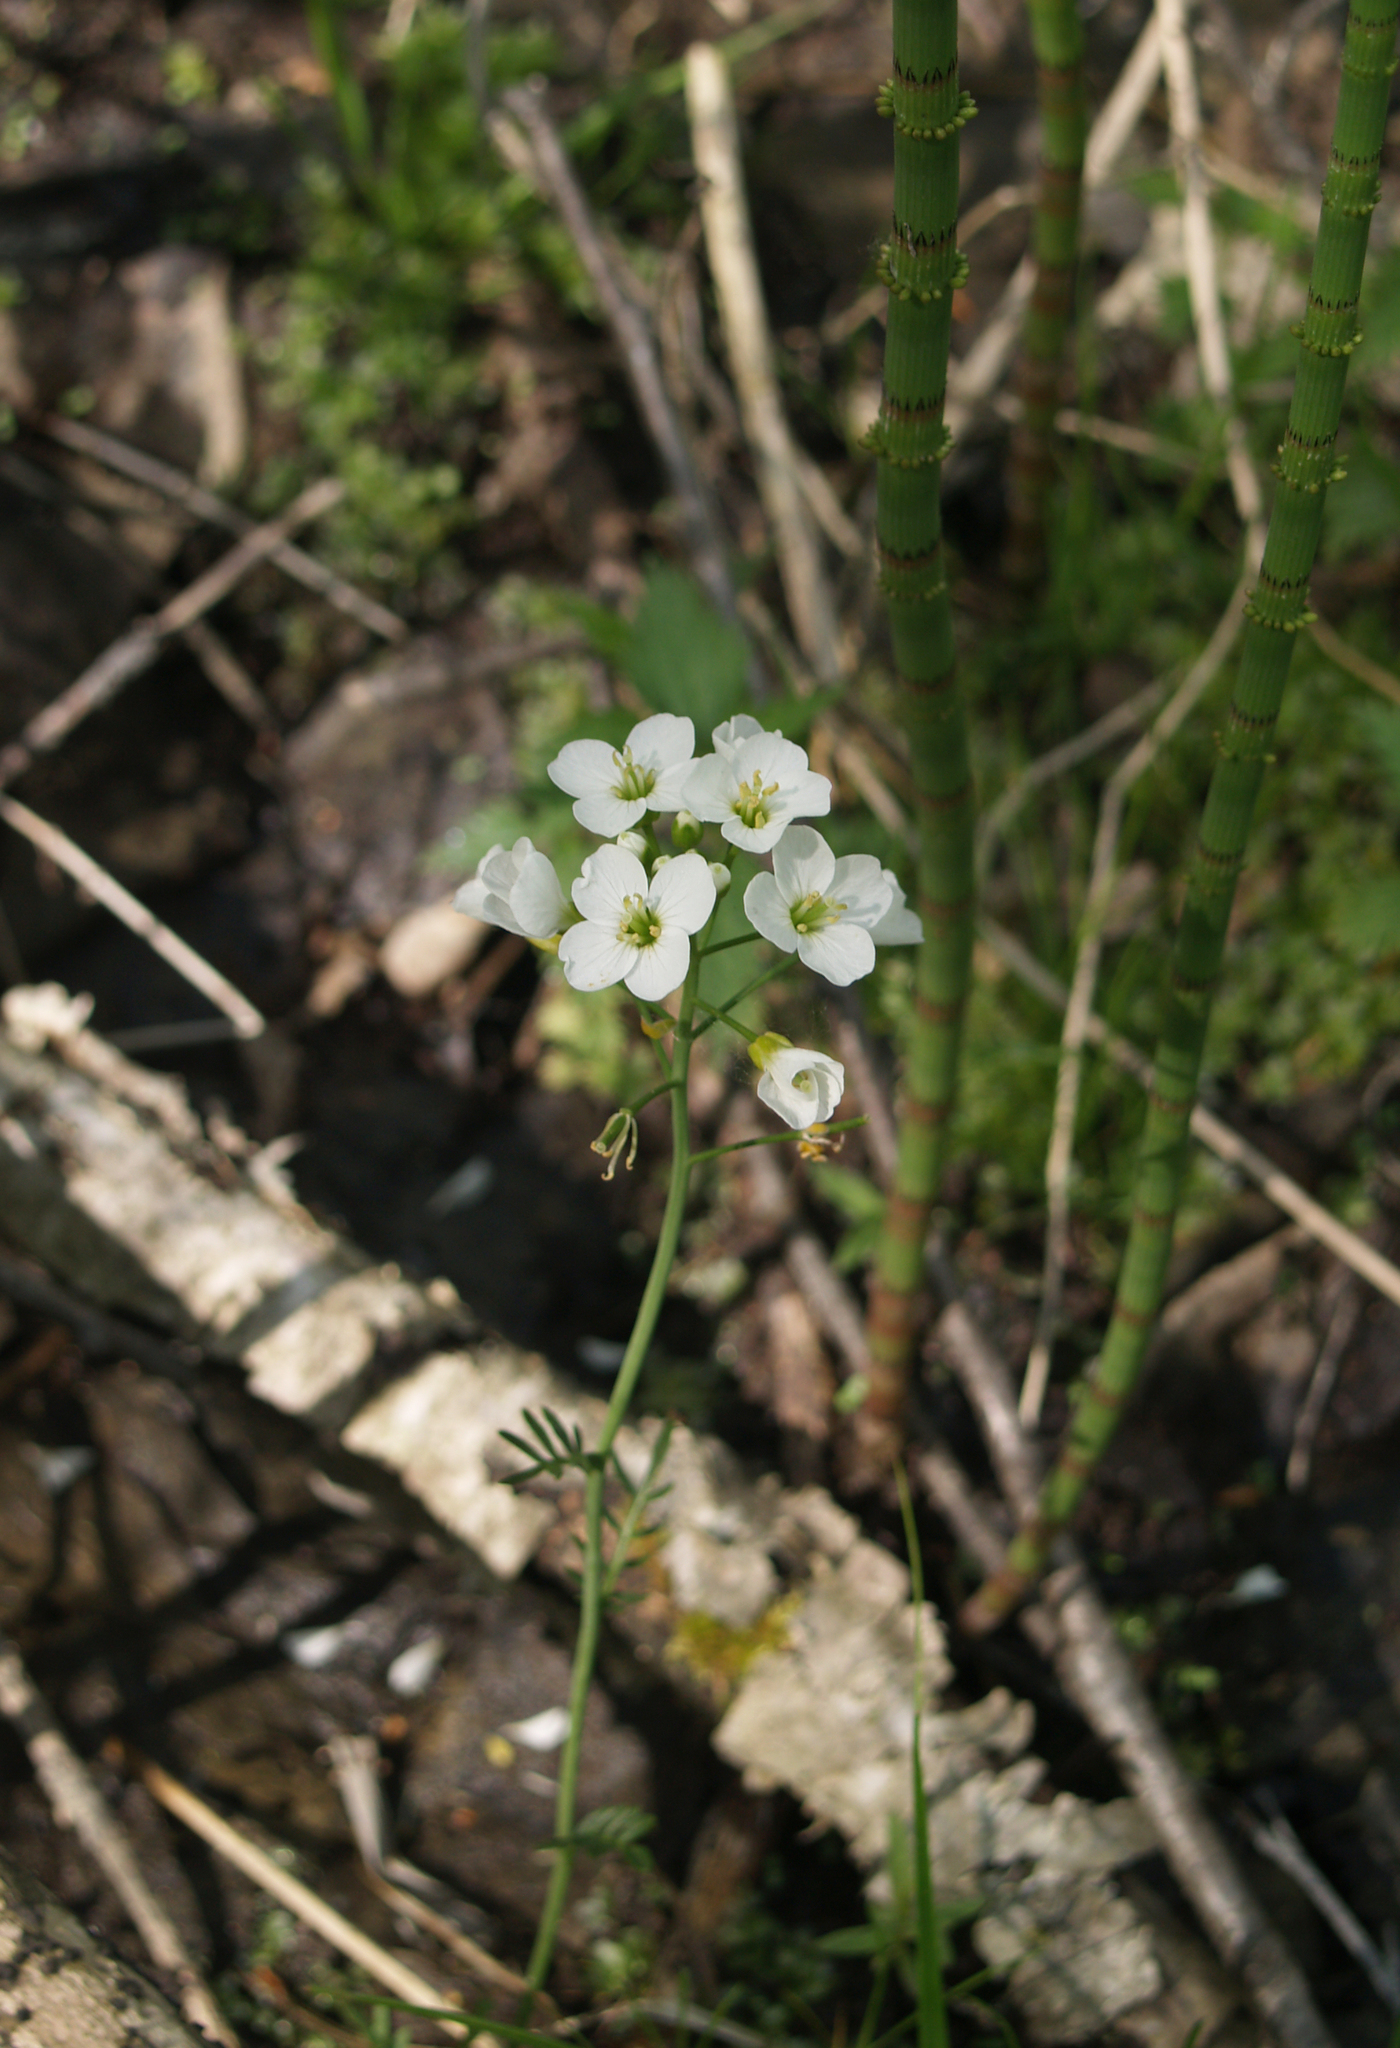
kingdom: Plantae
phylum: Tracheophyta
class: Magnoliopsida
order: Brassicales
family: Brassicaceae
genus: Cardamine
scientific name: Cardamine dentata
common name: Toothed bittercress
